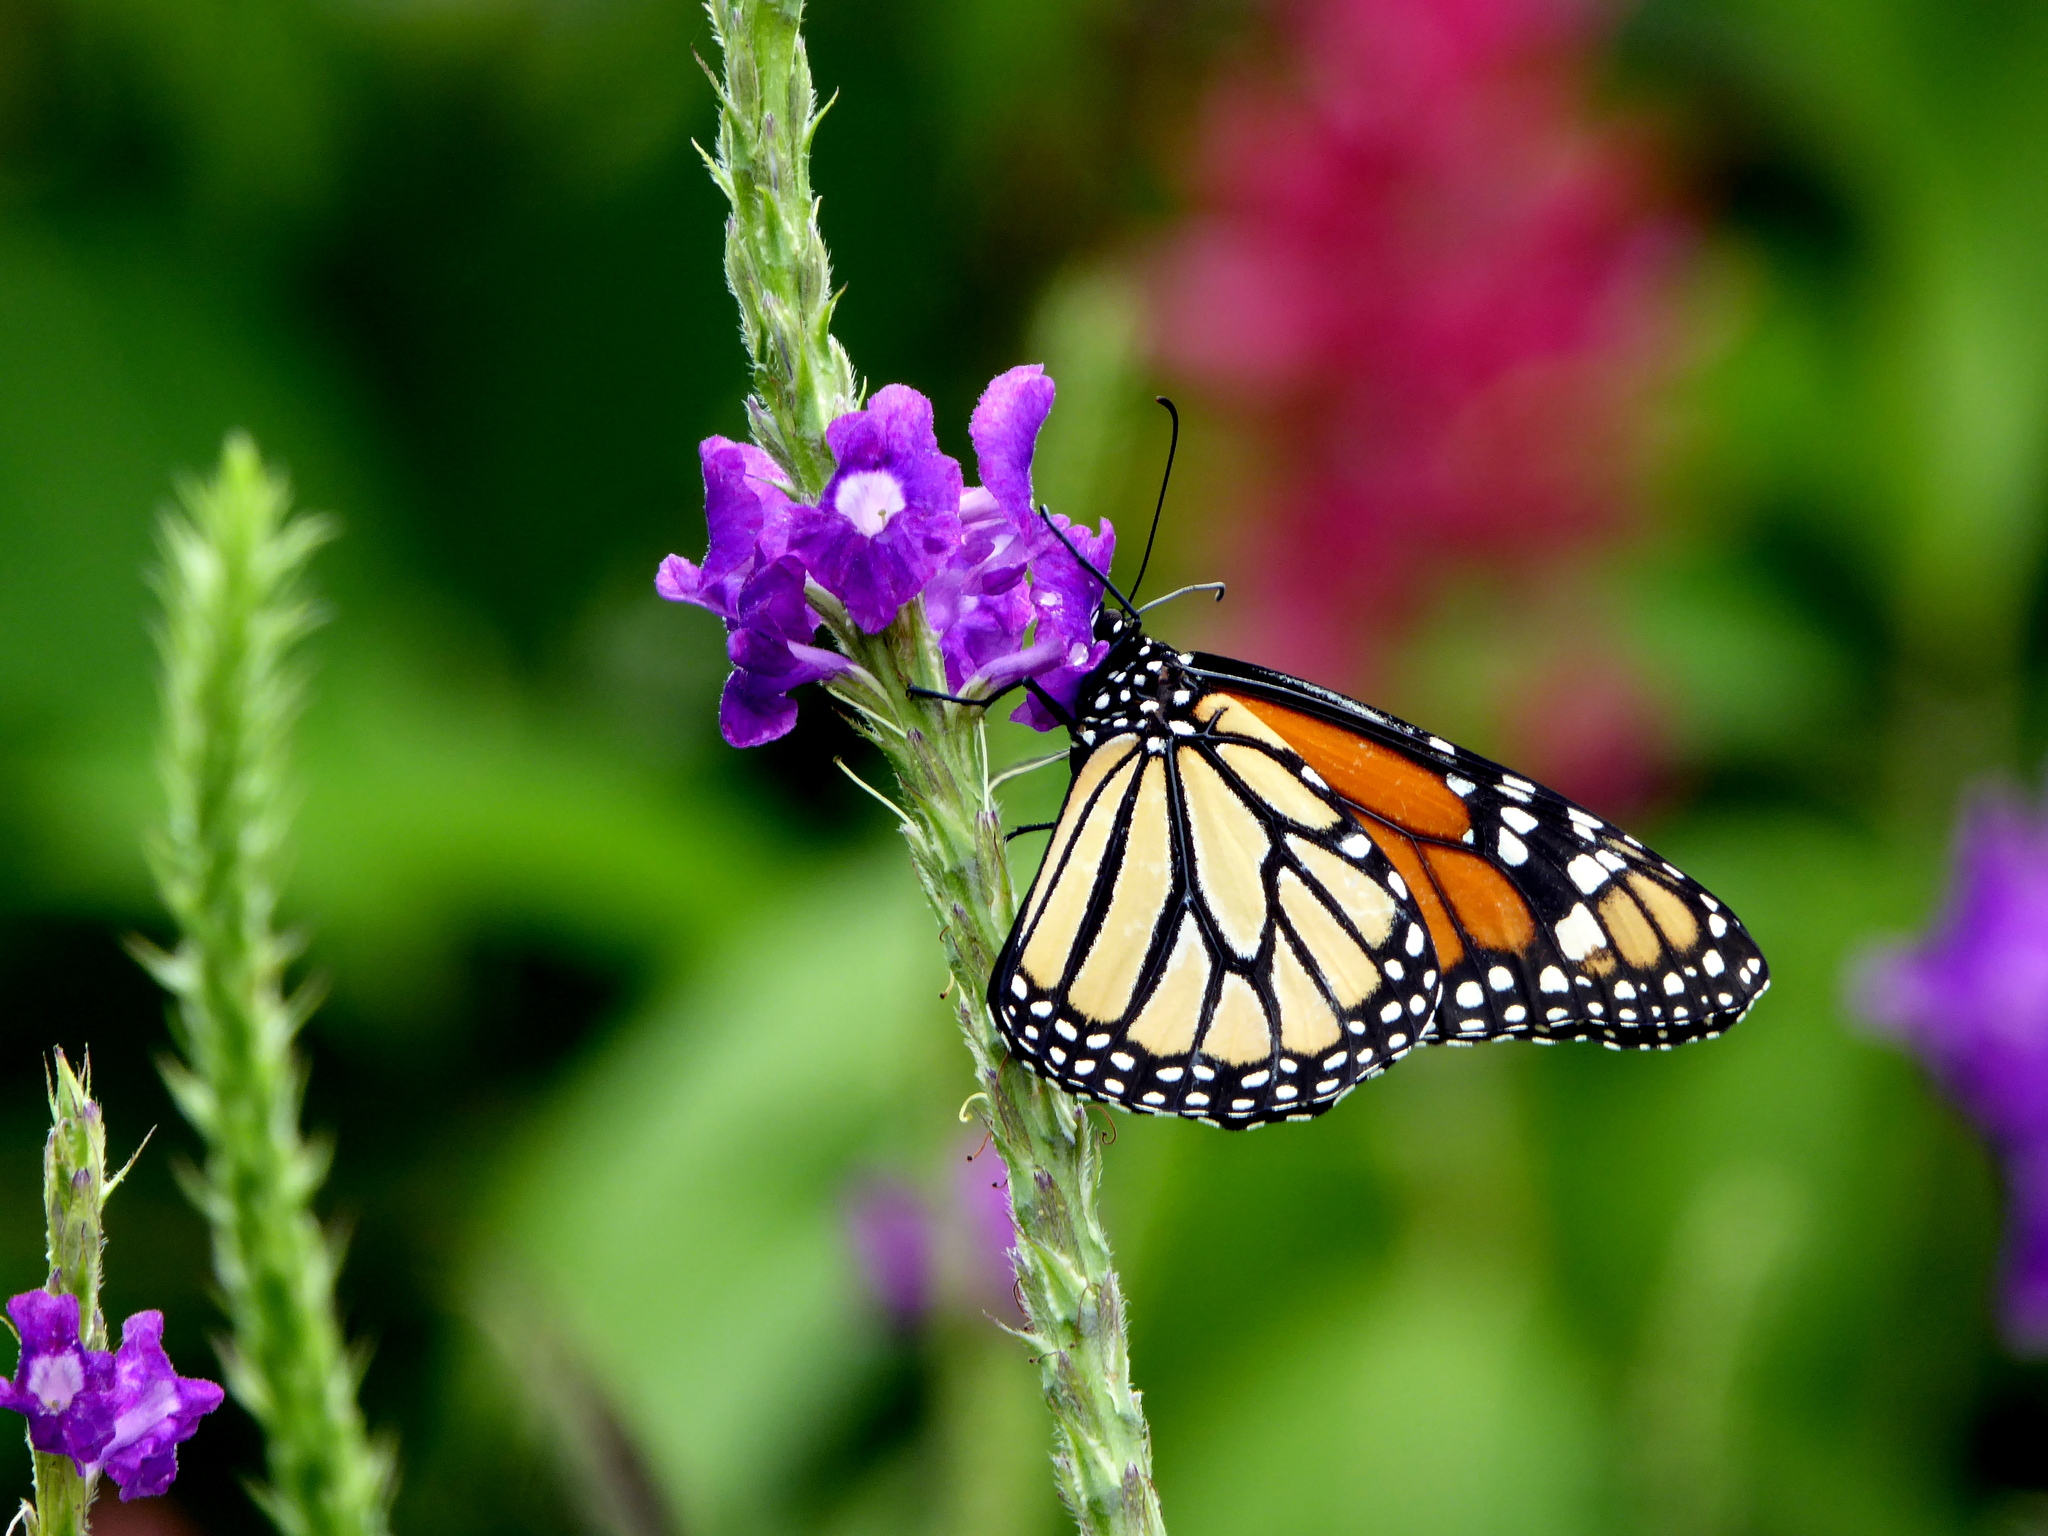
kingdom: Animalia
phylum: Arthropoda
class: Insecta
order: Lepidoptera
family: Nymphalidae
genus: Danaus
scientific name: Danaus plexippus
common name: Monarch
